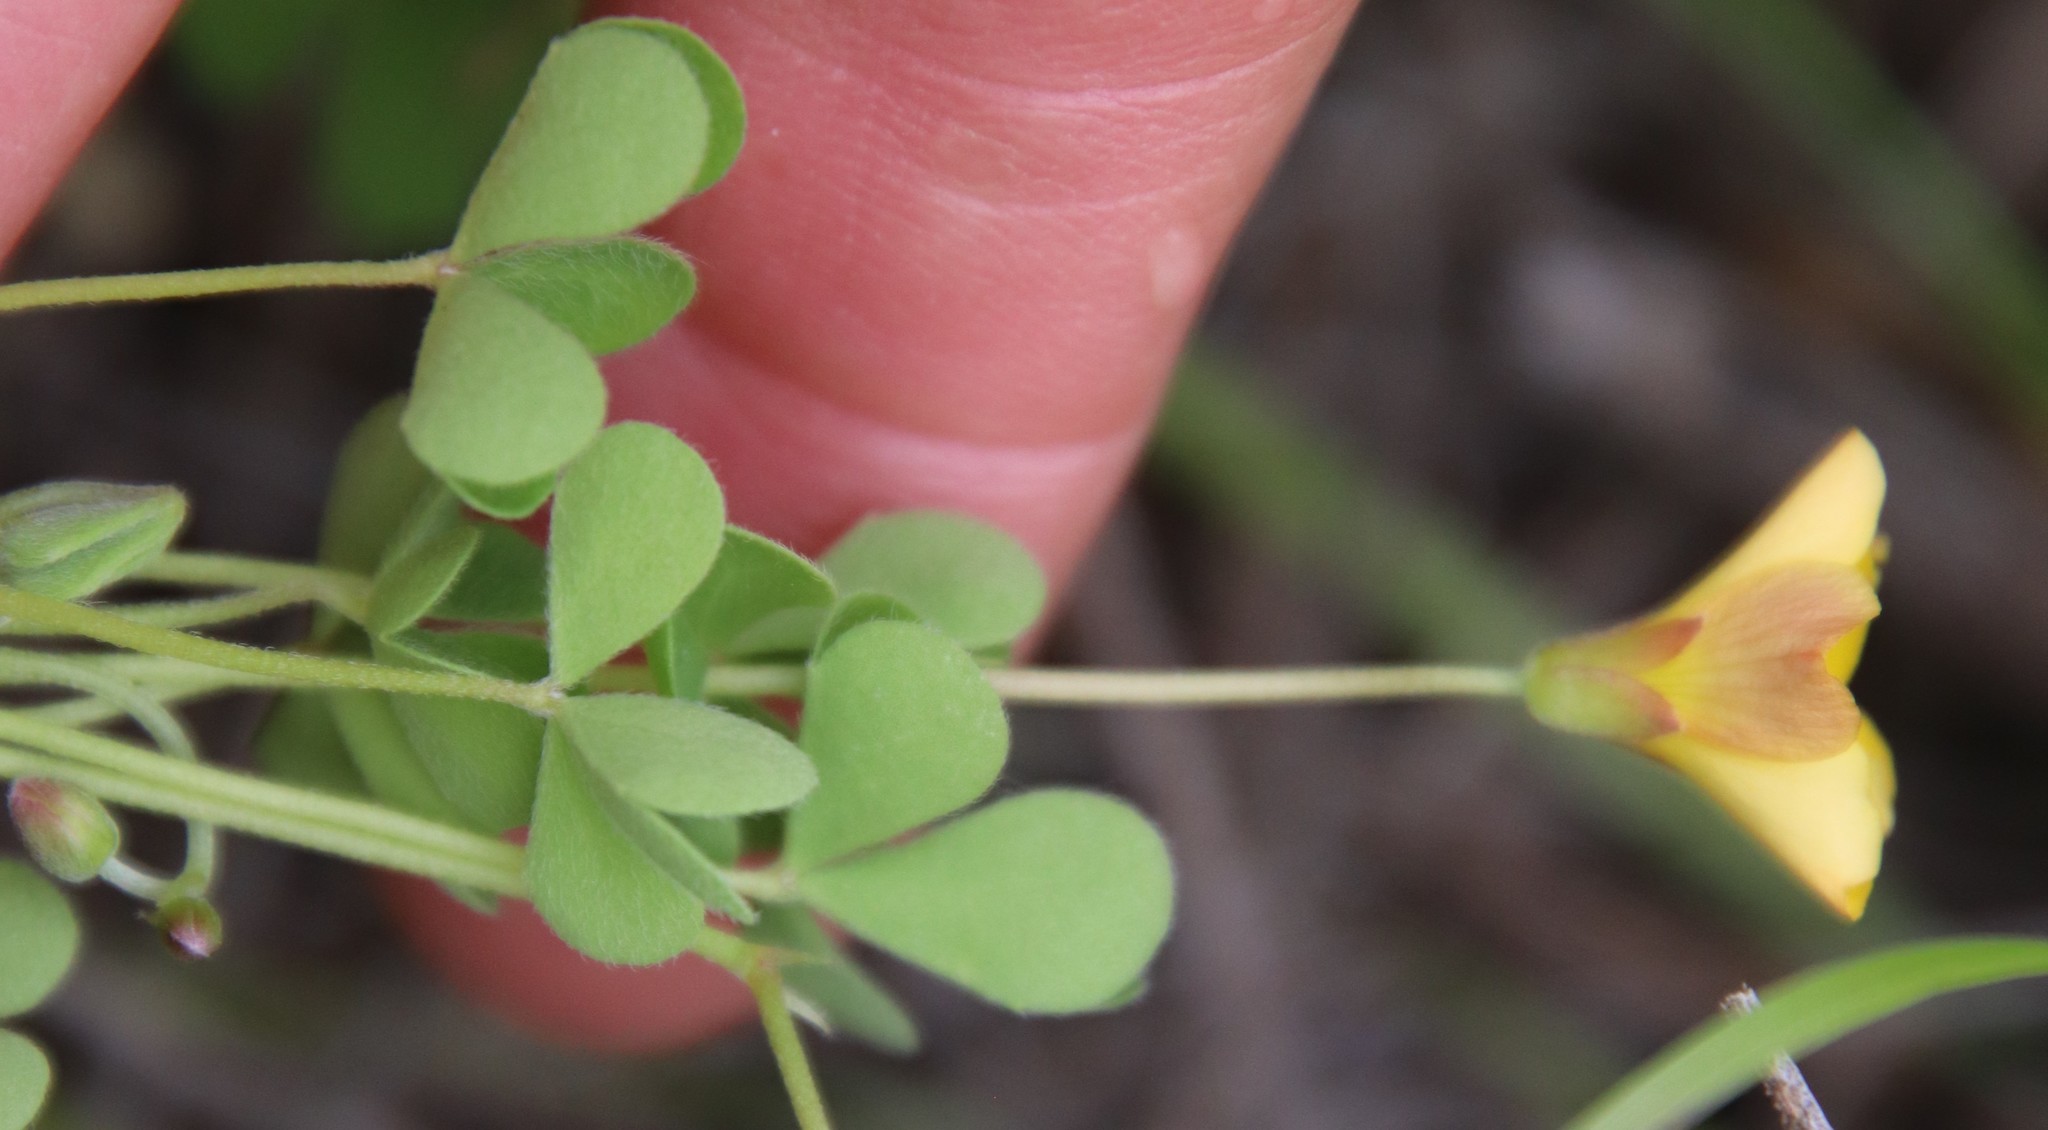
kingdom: Plantae
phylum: Tracheophyta
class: Magnoliopsida
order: Oxalidales
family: Oxalidaceae
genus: Oxalis
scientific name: Oxalis californica
